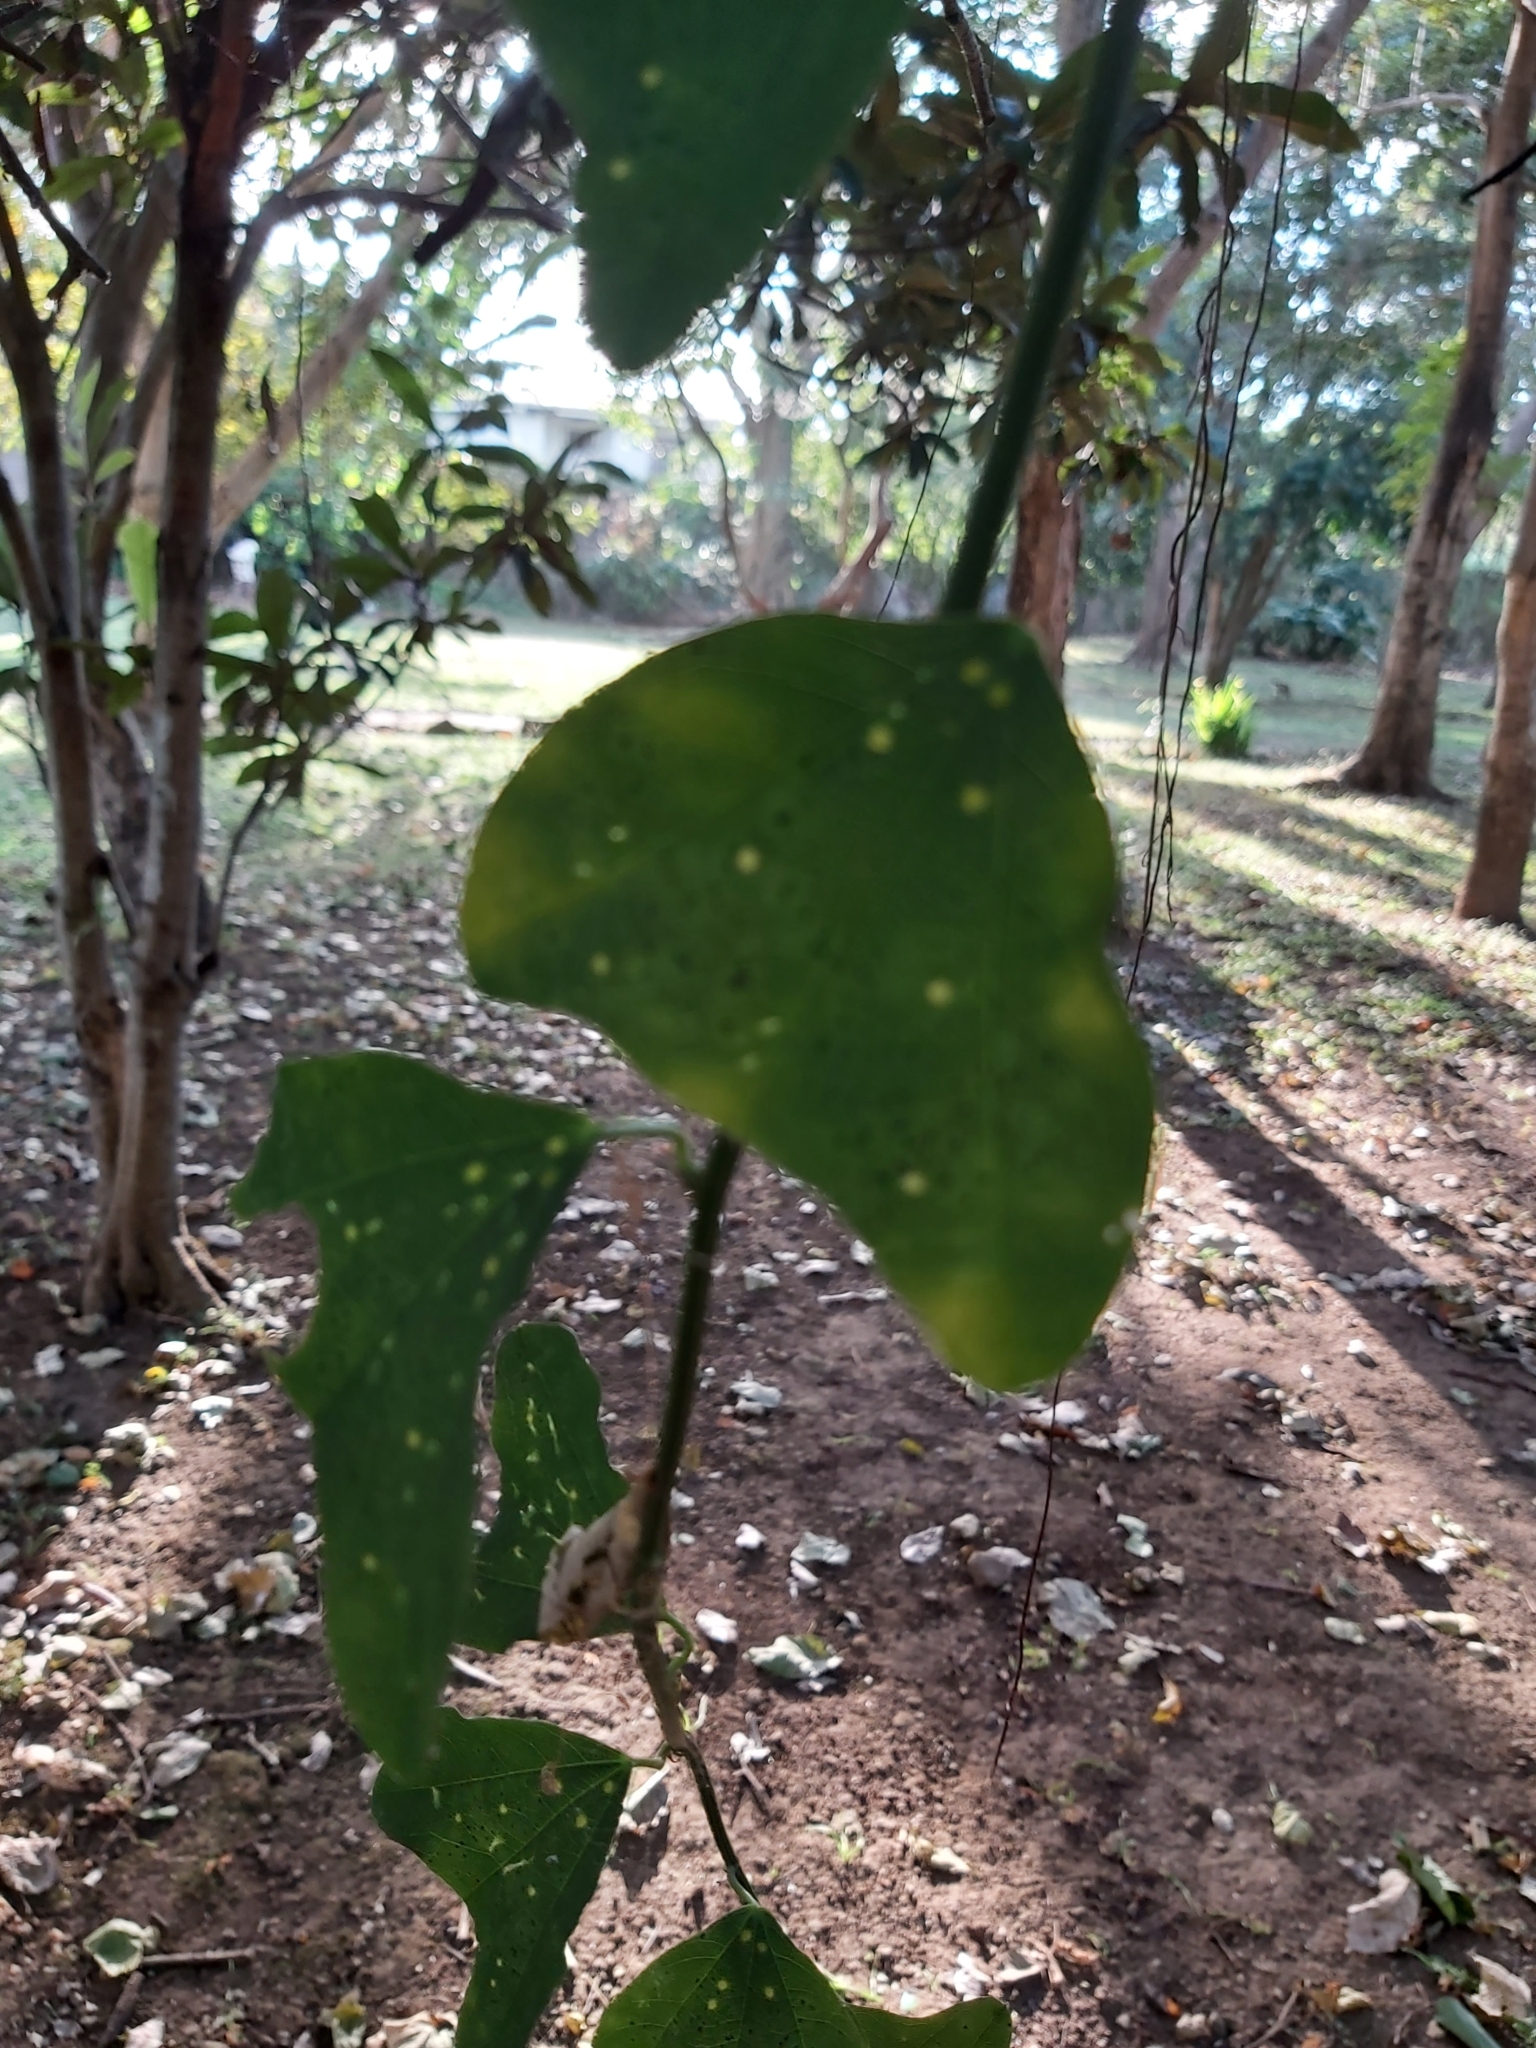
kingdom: Plantae
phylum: Tracheophyta
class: Magnoliopsida
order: Malpighiales
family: Passifloraceae
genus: Passiflora
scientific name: Passiflora biflora
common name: Twoflower passionflower
